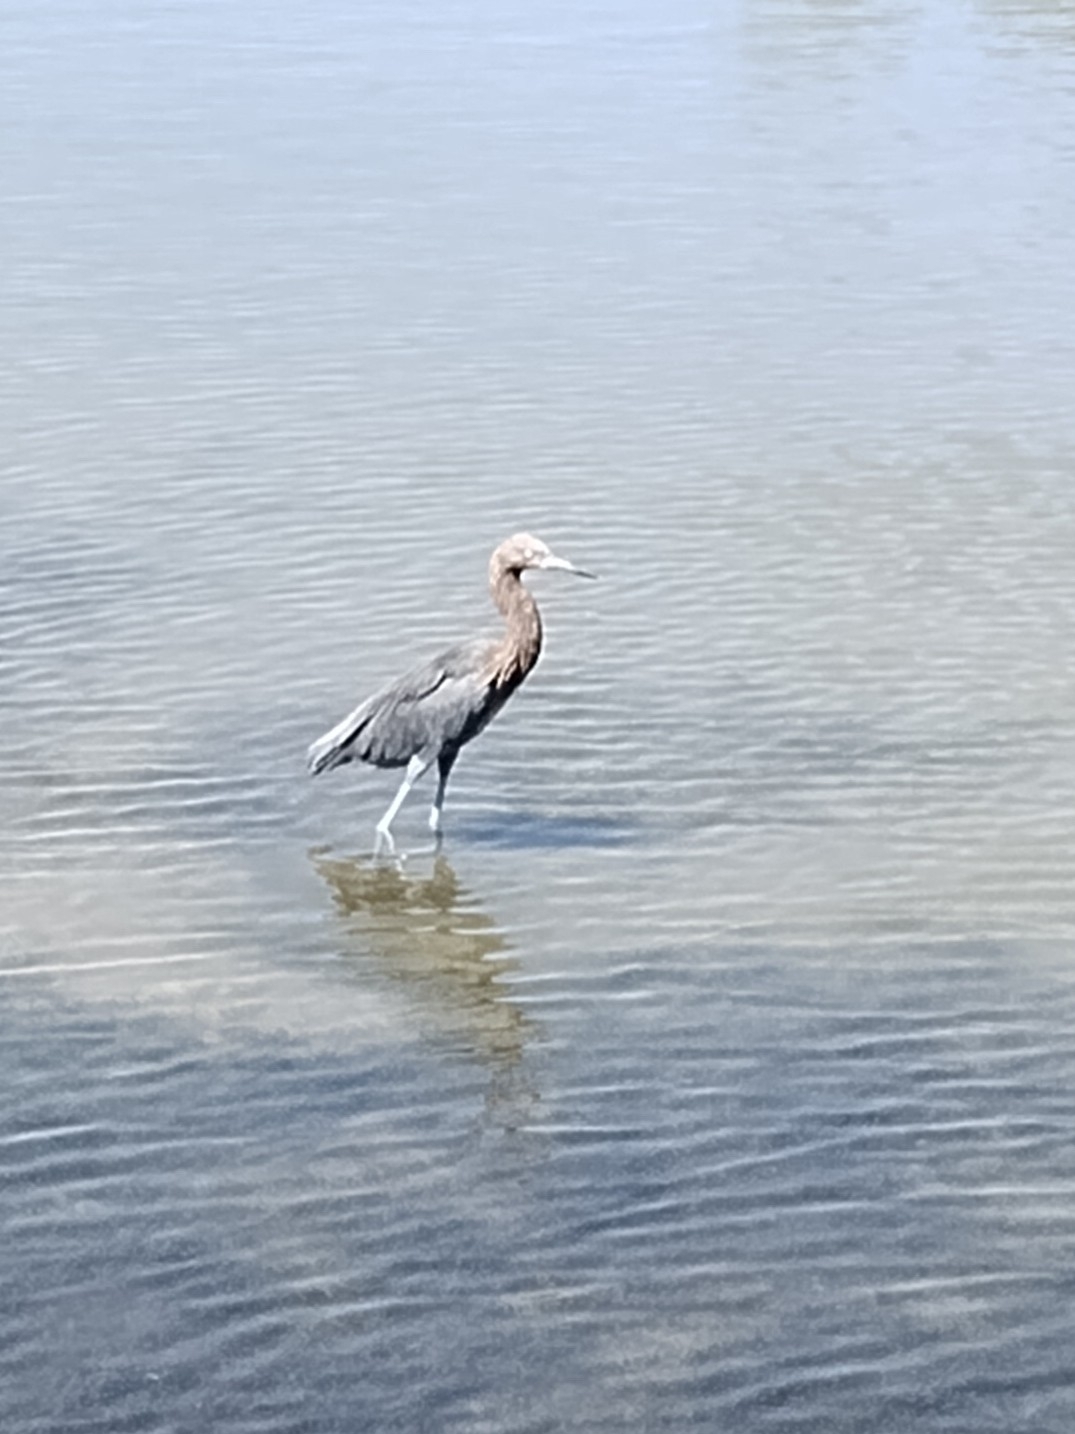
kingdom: Animalia
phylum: Chordata
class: Aves
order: Pelecaniformes
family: Ardeidae
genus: Egretta
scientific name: Egretta rufescens
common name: Reddish egret
